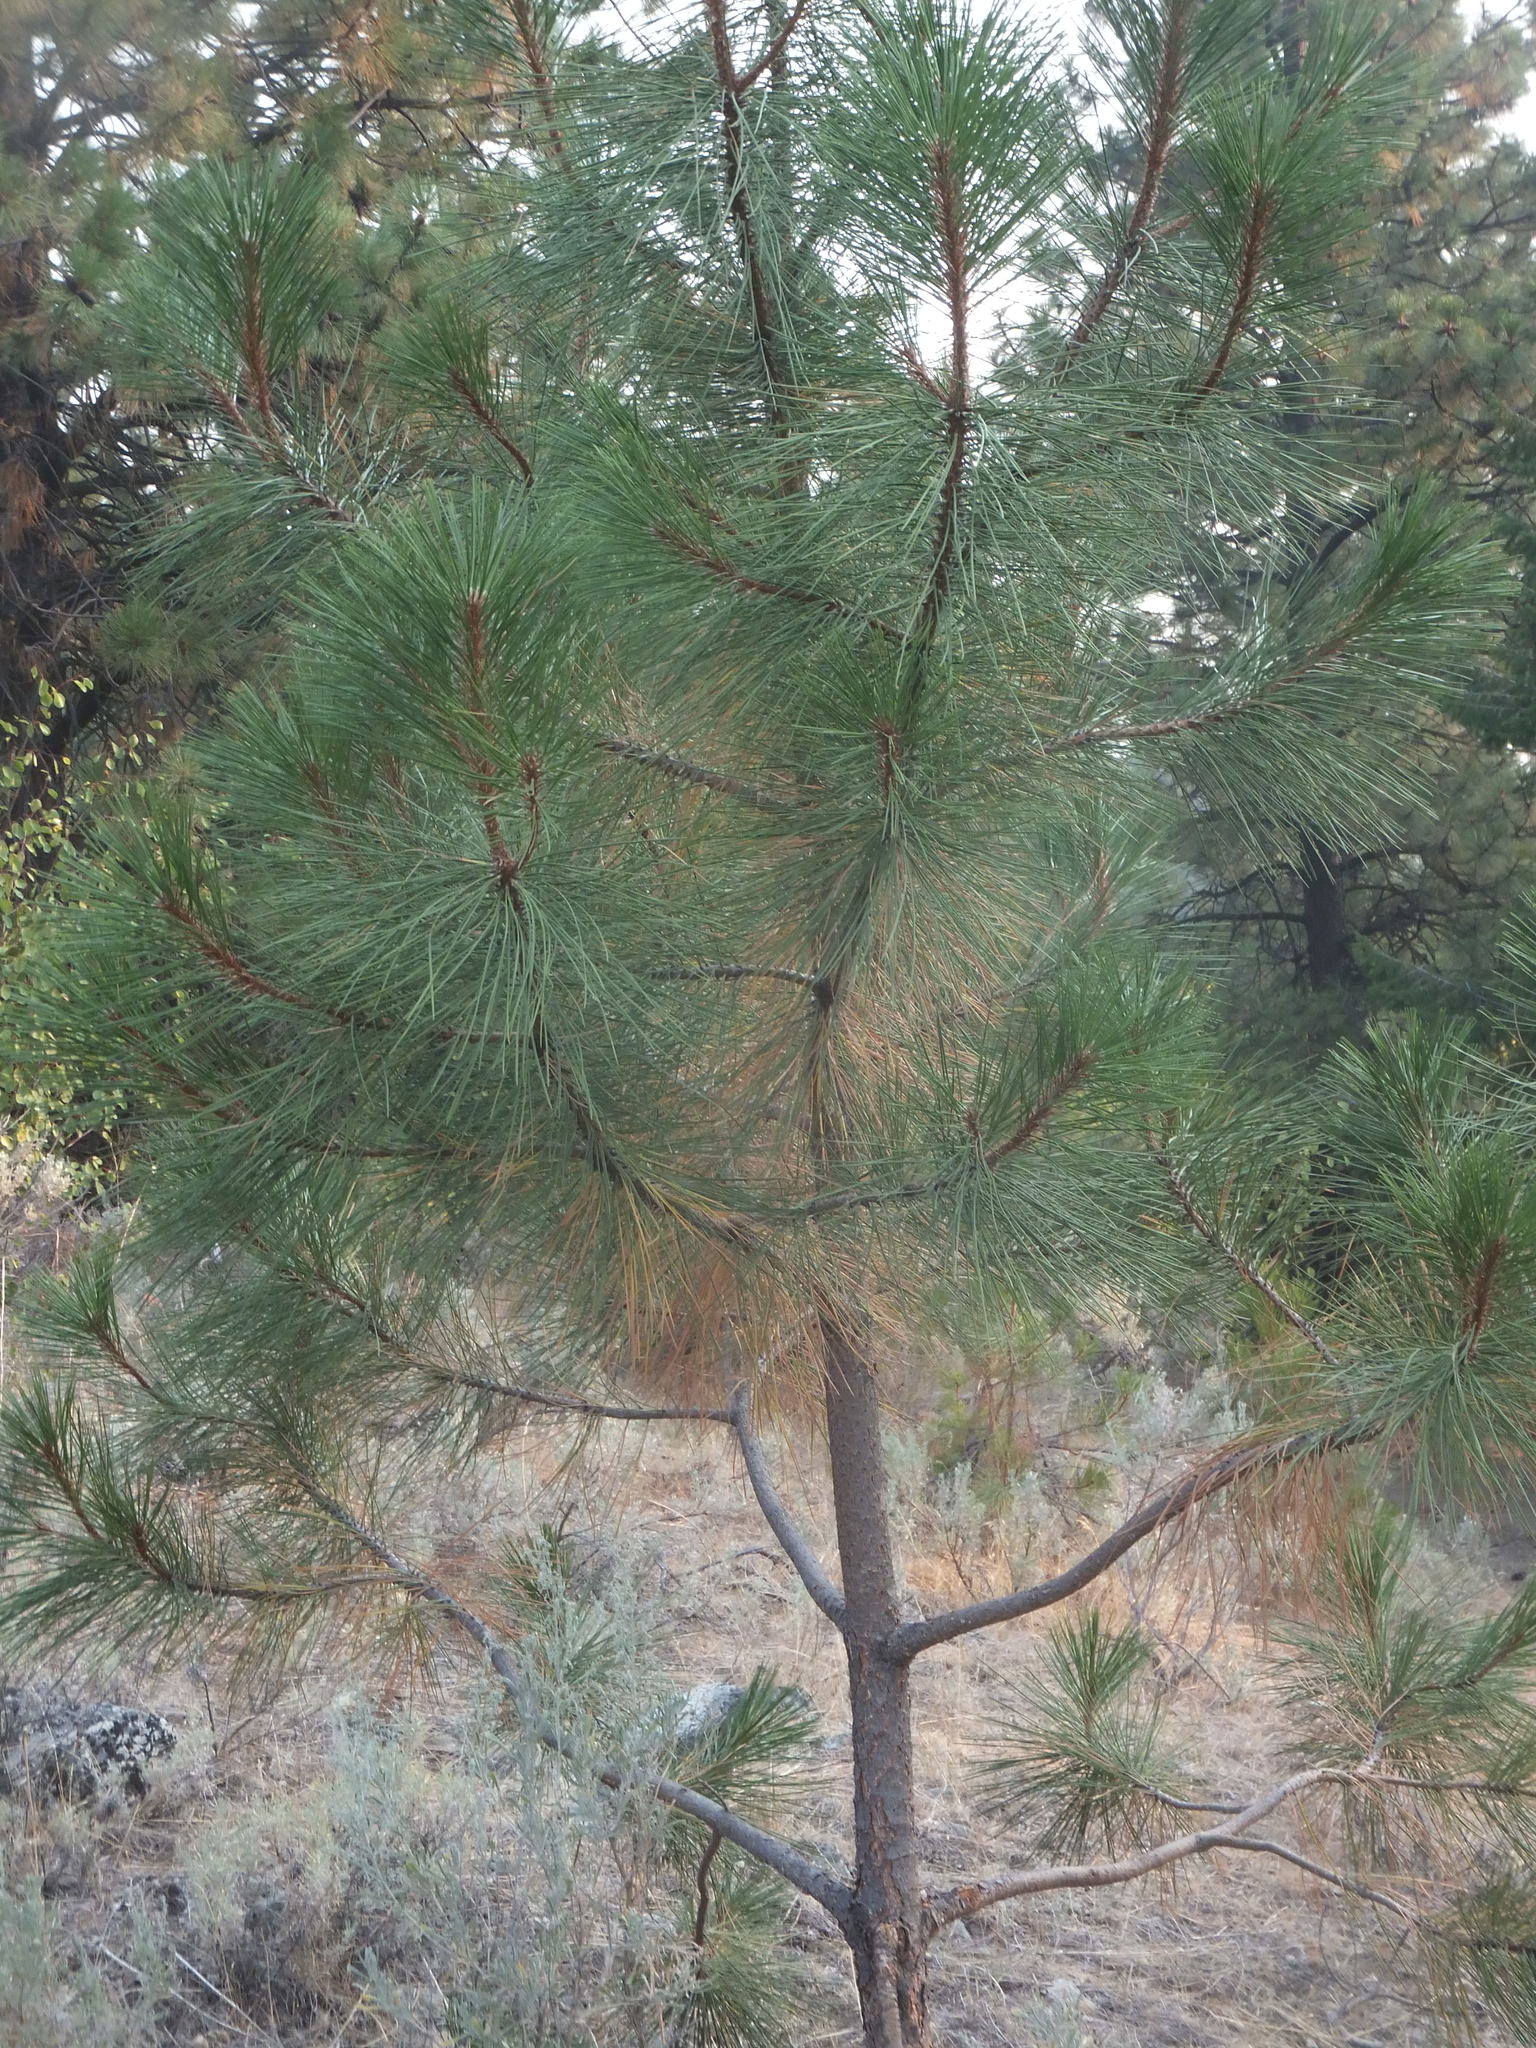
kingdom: Plantae
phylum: Tracheophyta
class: Pinopsida
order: Pinales
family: Pinaceae
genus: Pinus
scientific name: Pinus ponderosa
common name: Western yellow-pine
